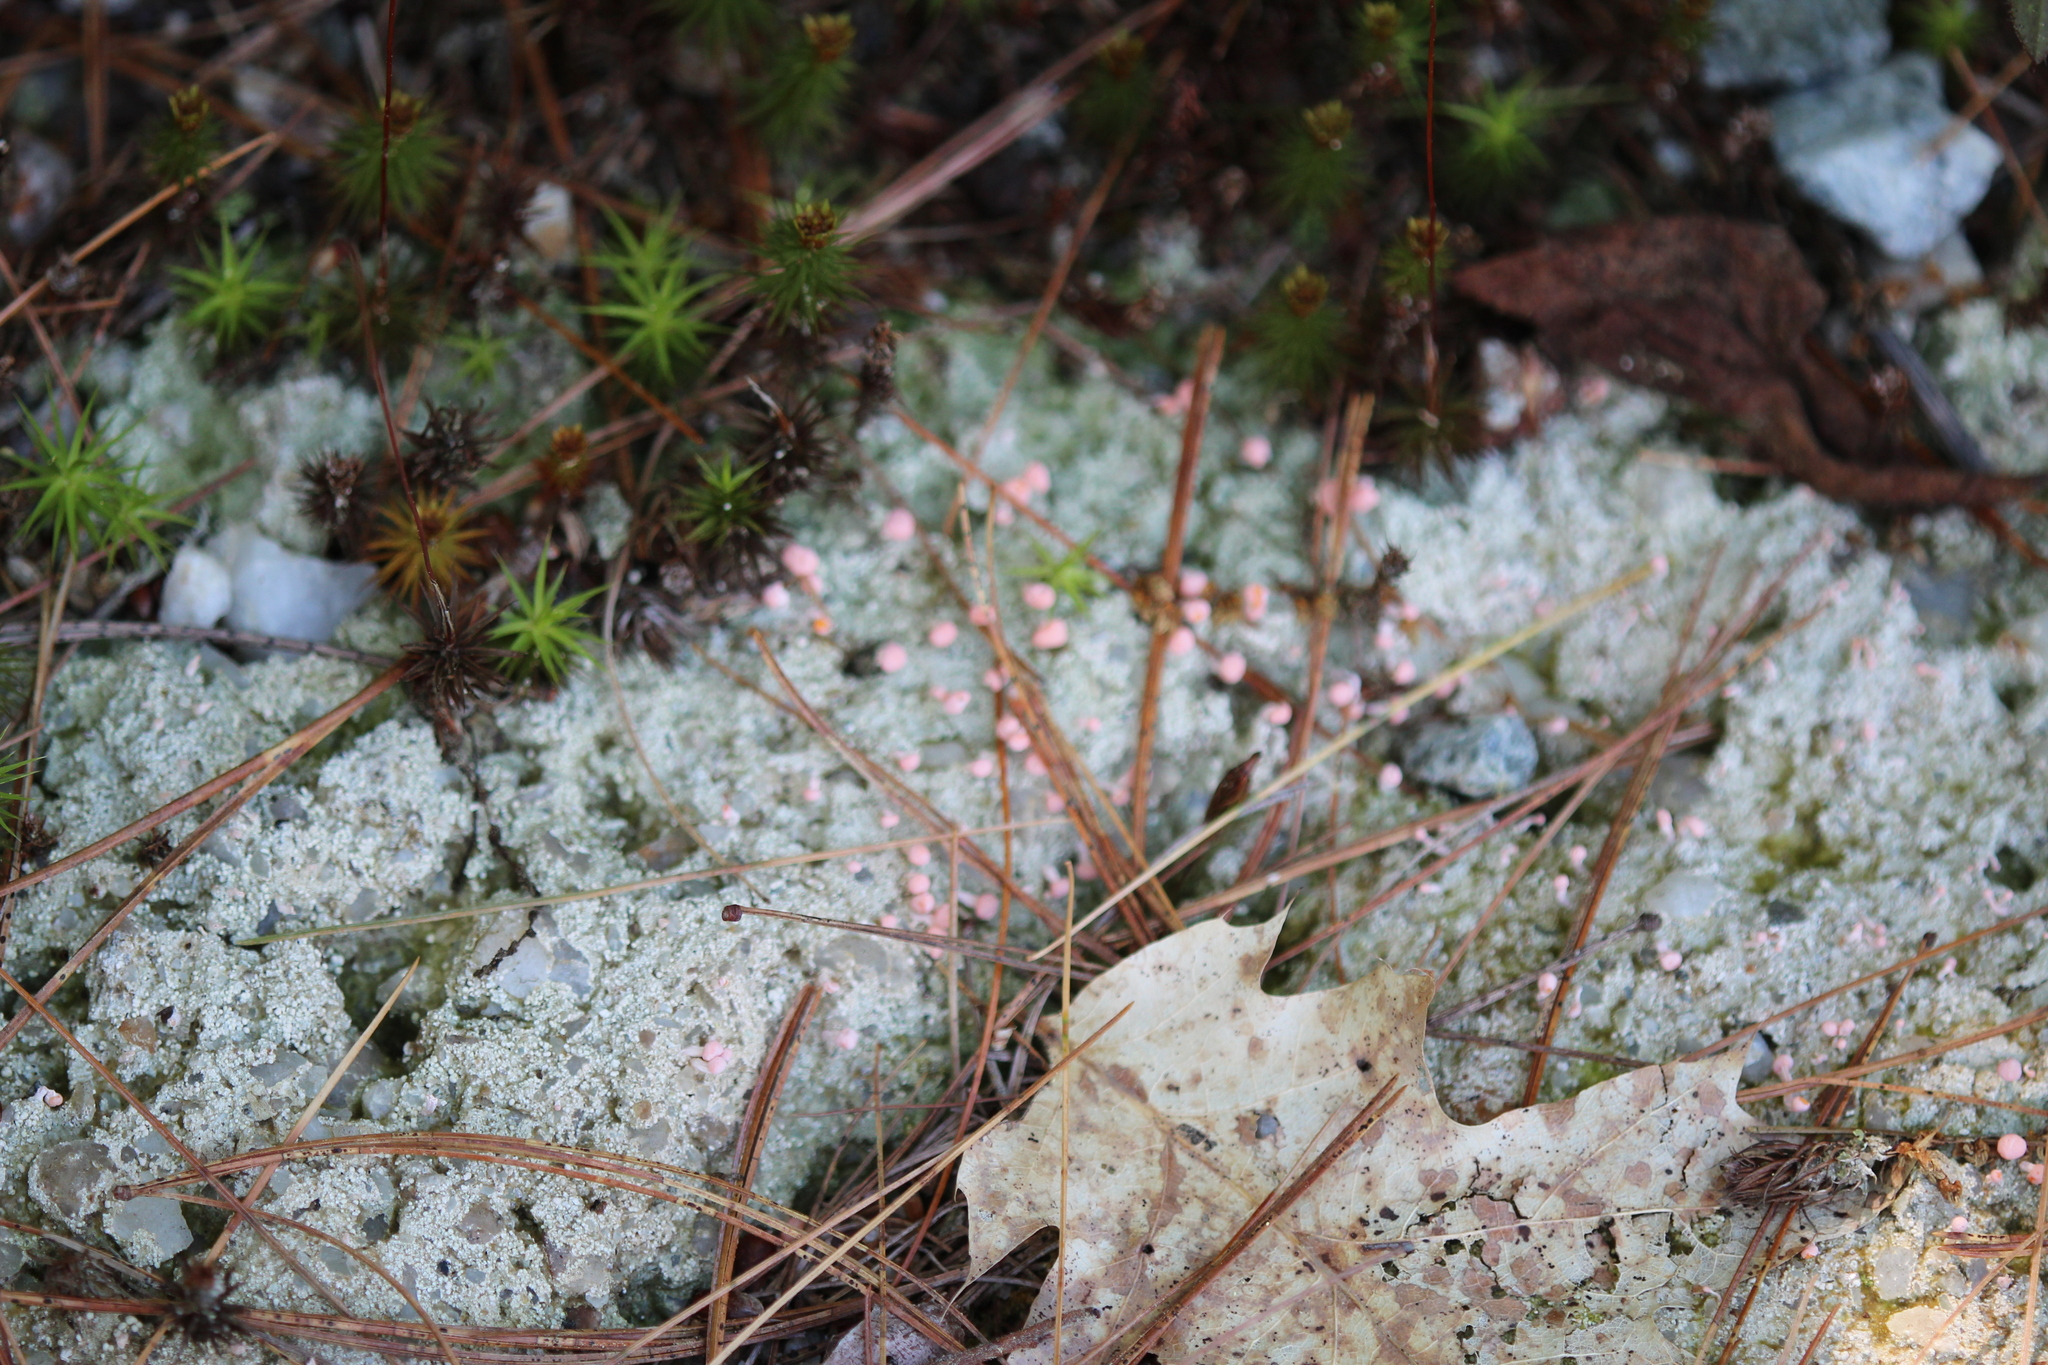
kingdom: Fungi
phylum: Ascomycota
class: Lecanoromycetes
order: Pertusariales
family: Icmadophilaceae
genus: Dibaeis
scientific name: Dibaeis baeomyces
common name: Pink earth lichen
